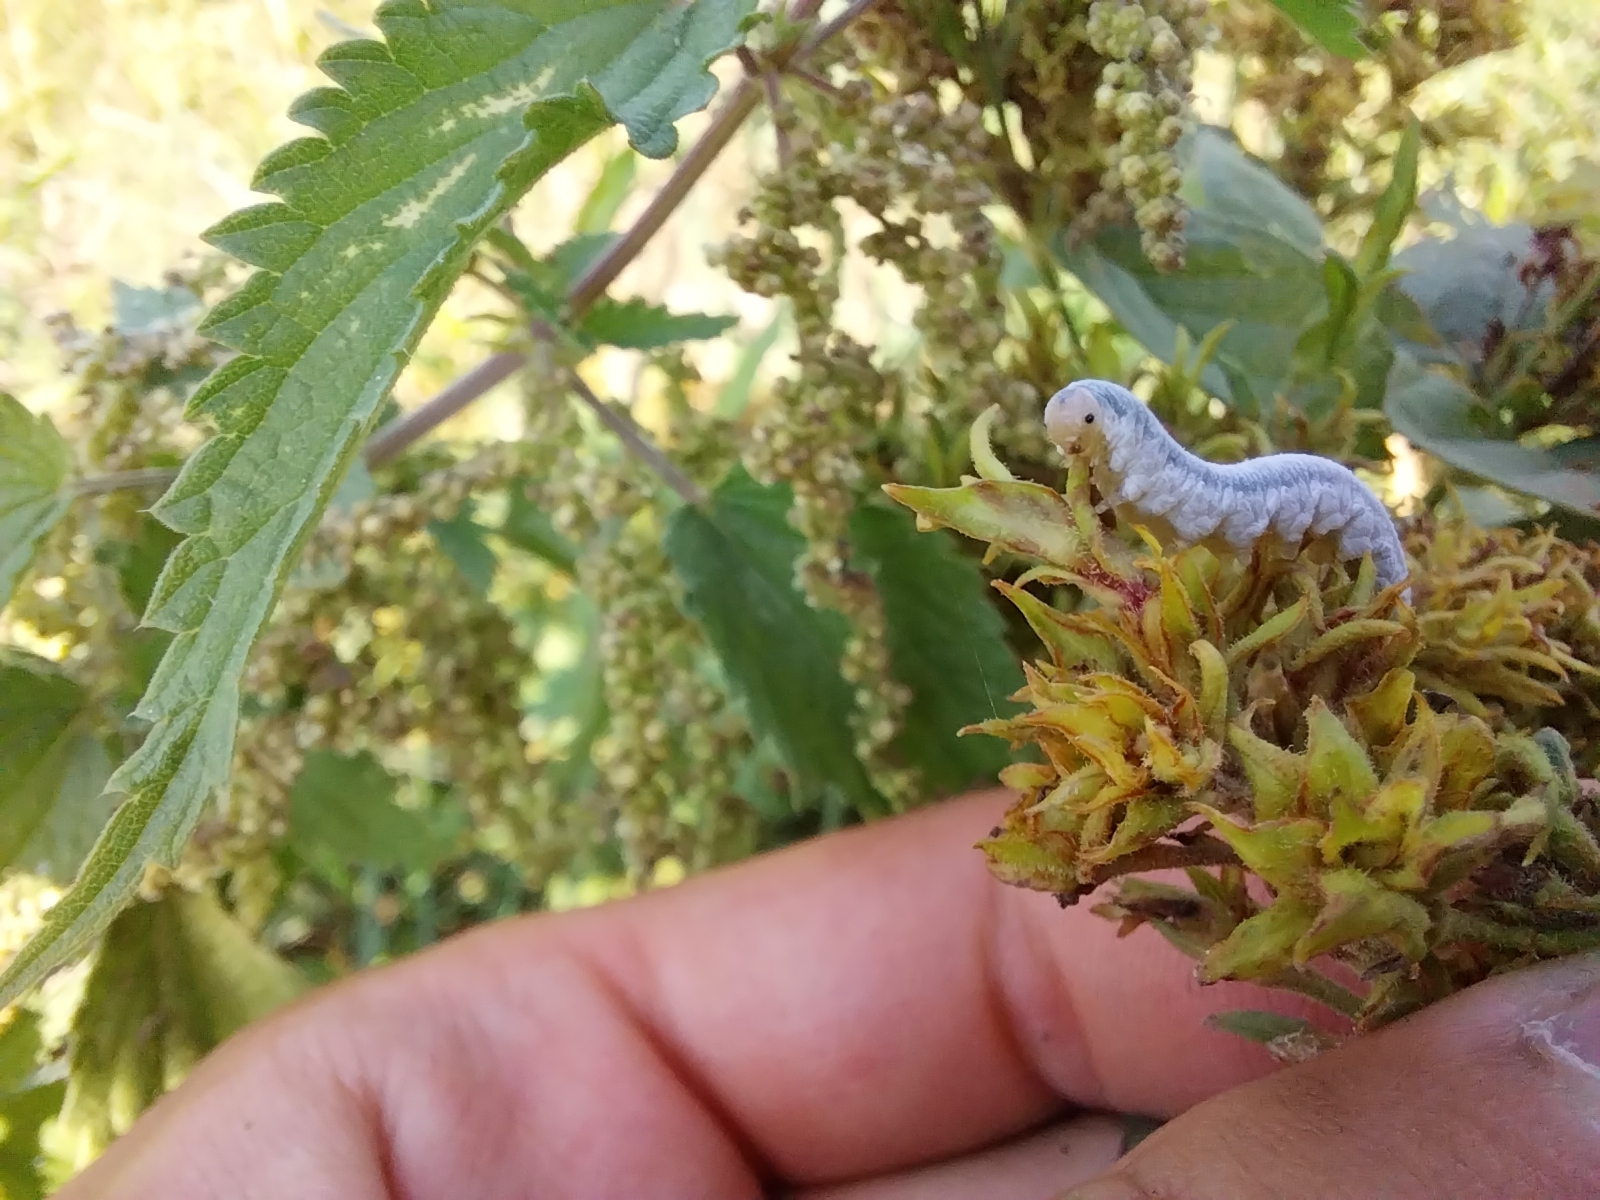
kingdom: Animalia
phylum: Arthropoda
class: Insecta
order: Hymenoptera
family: Tenthredinidae
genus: Monostegia
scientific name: Monostegia abdominalis
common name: Tenthredid wasp
